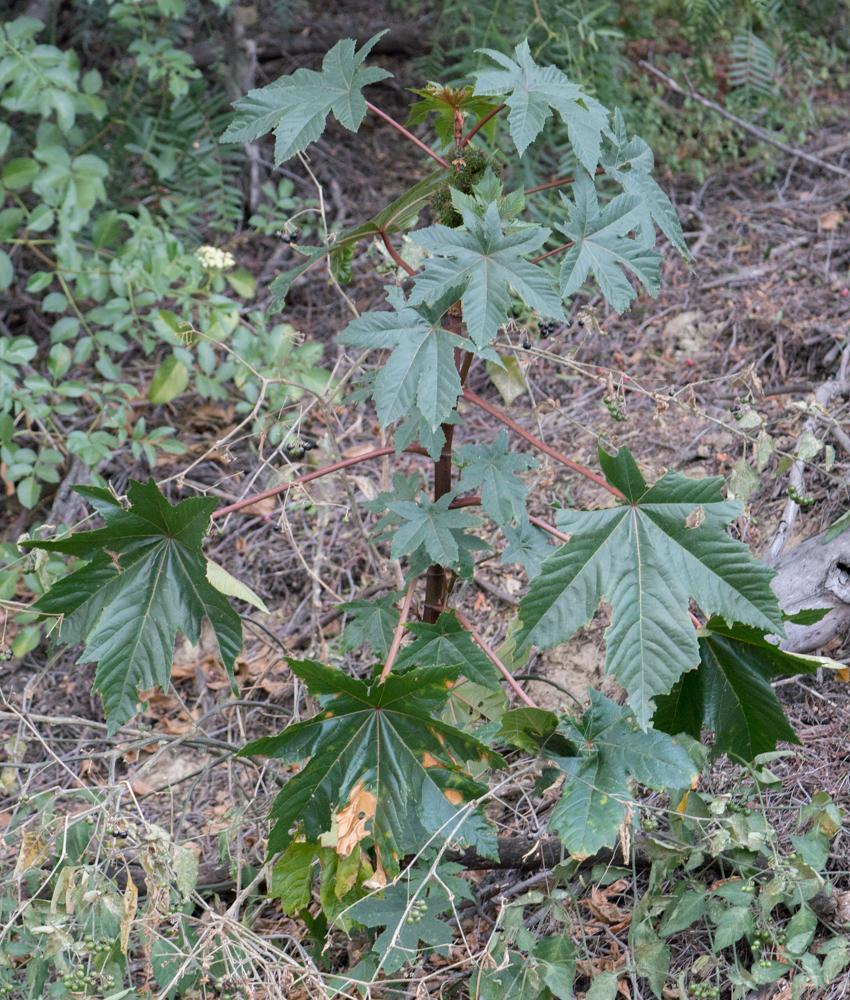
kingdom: Plantae
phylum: Tracheophyta
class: Magnoliopsida
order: Malpighiales
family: Euphorbiaceae
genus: Ricinus
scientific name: Ricinus communis
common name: Castor-oil-plant
